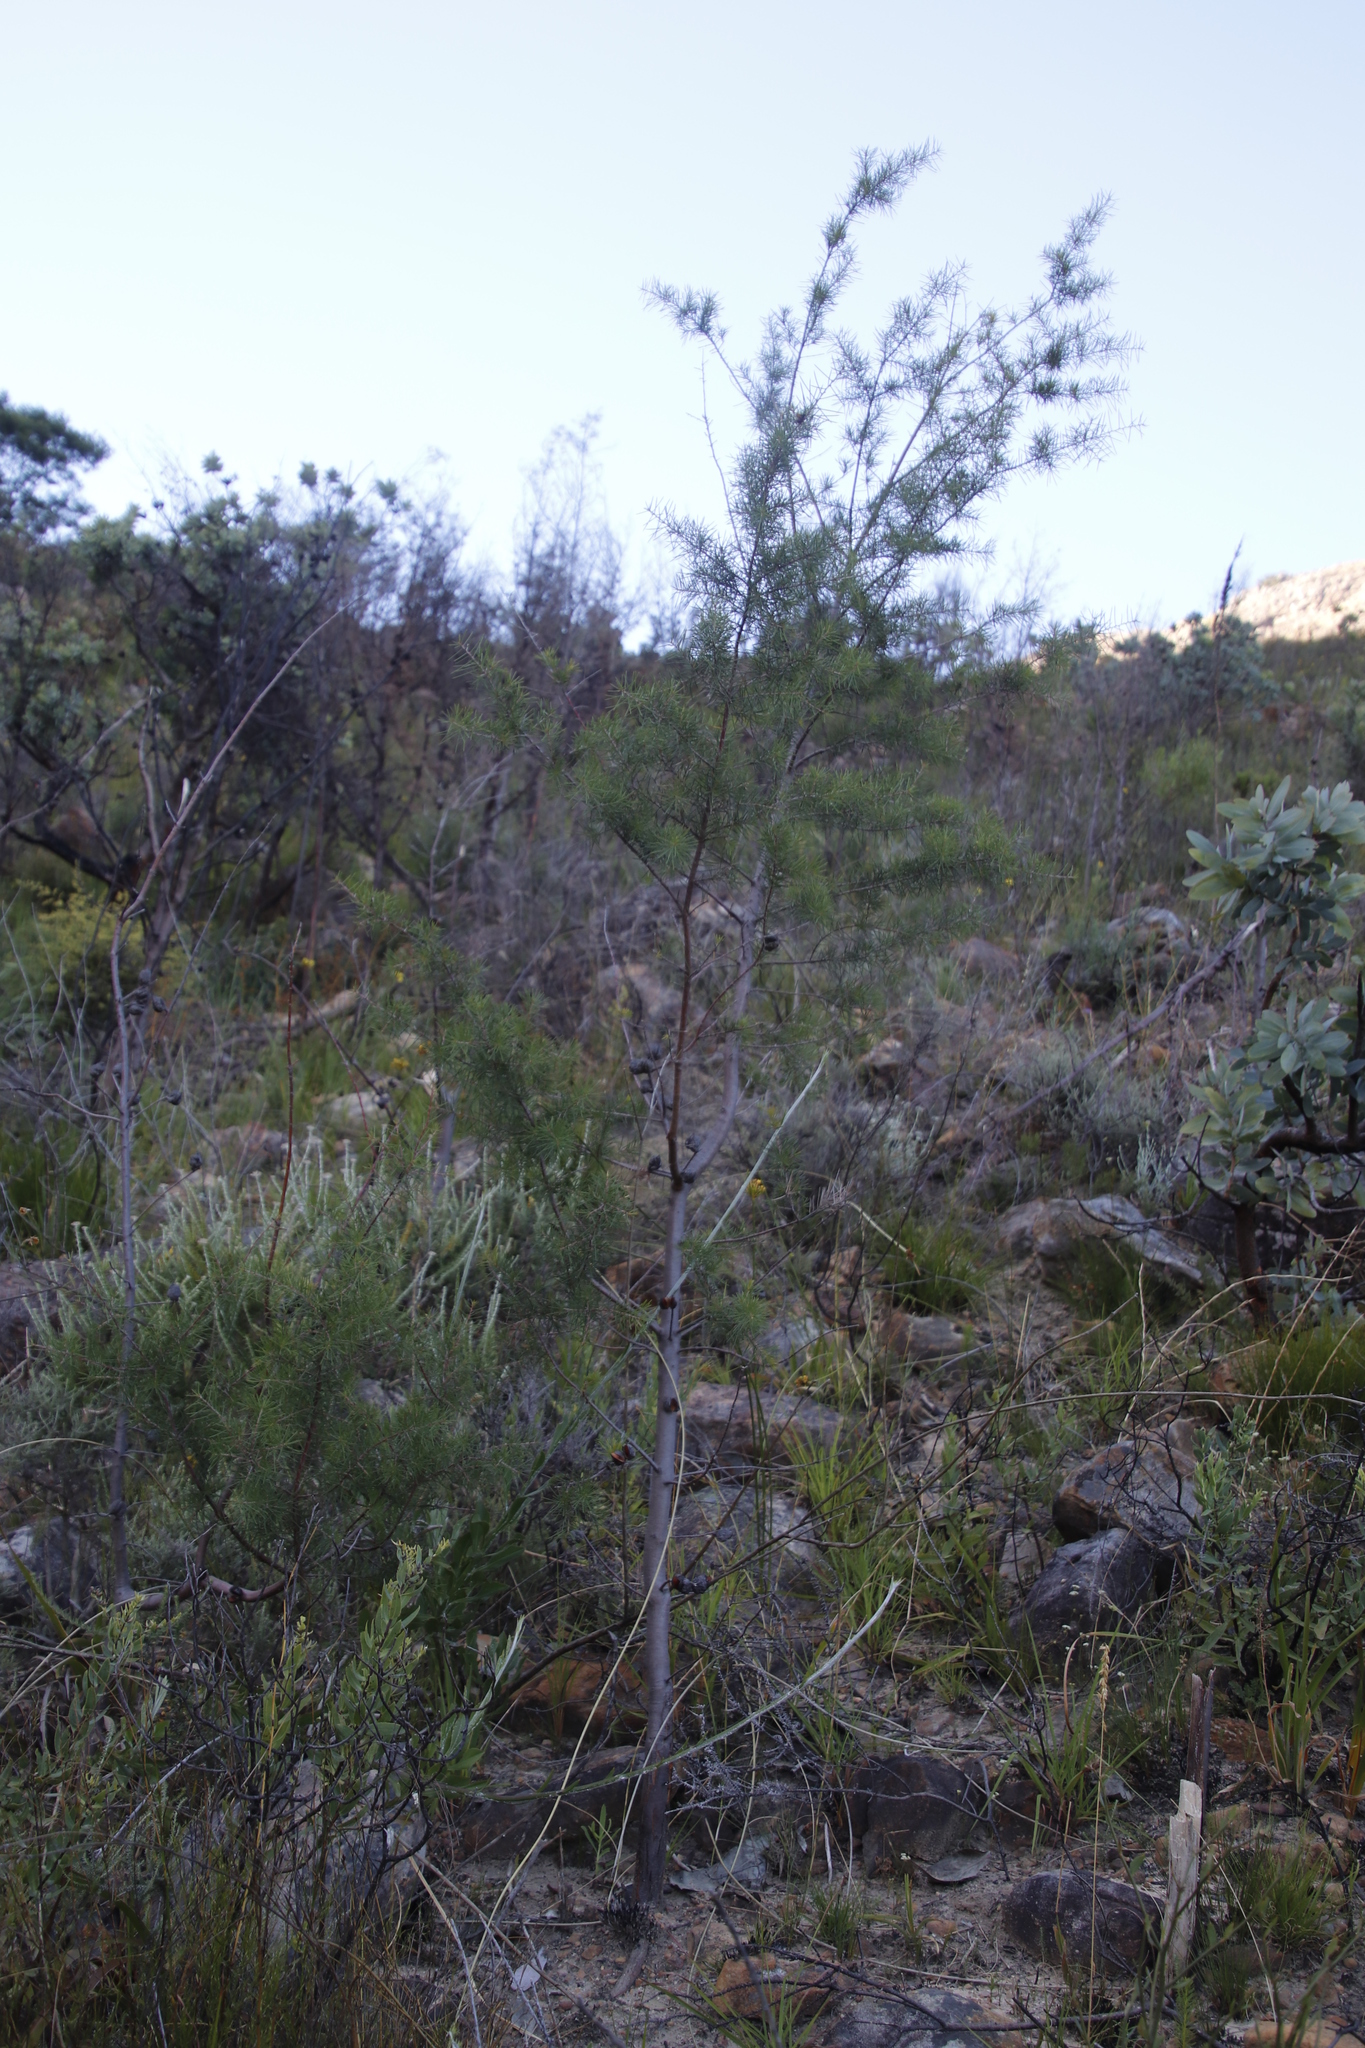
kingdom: Plantae
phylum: Tracheophyta
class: Magnoliopsida
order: Proteales
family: Proteaceae
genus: Hakea
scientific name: Hakea sericea
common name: Needle bush
